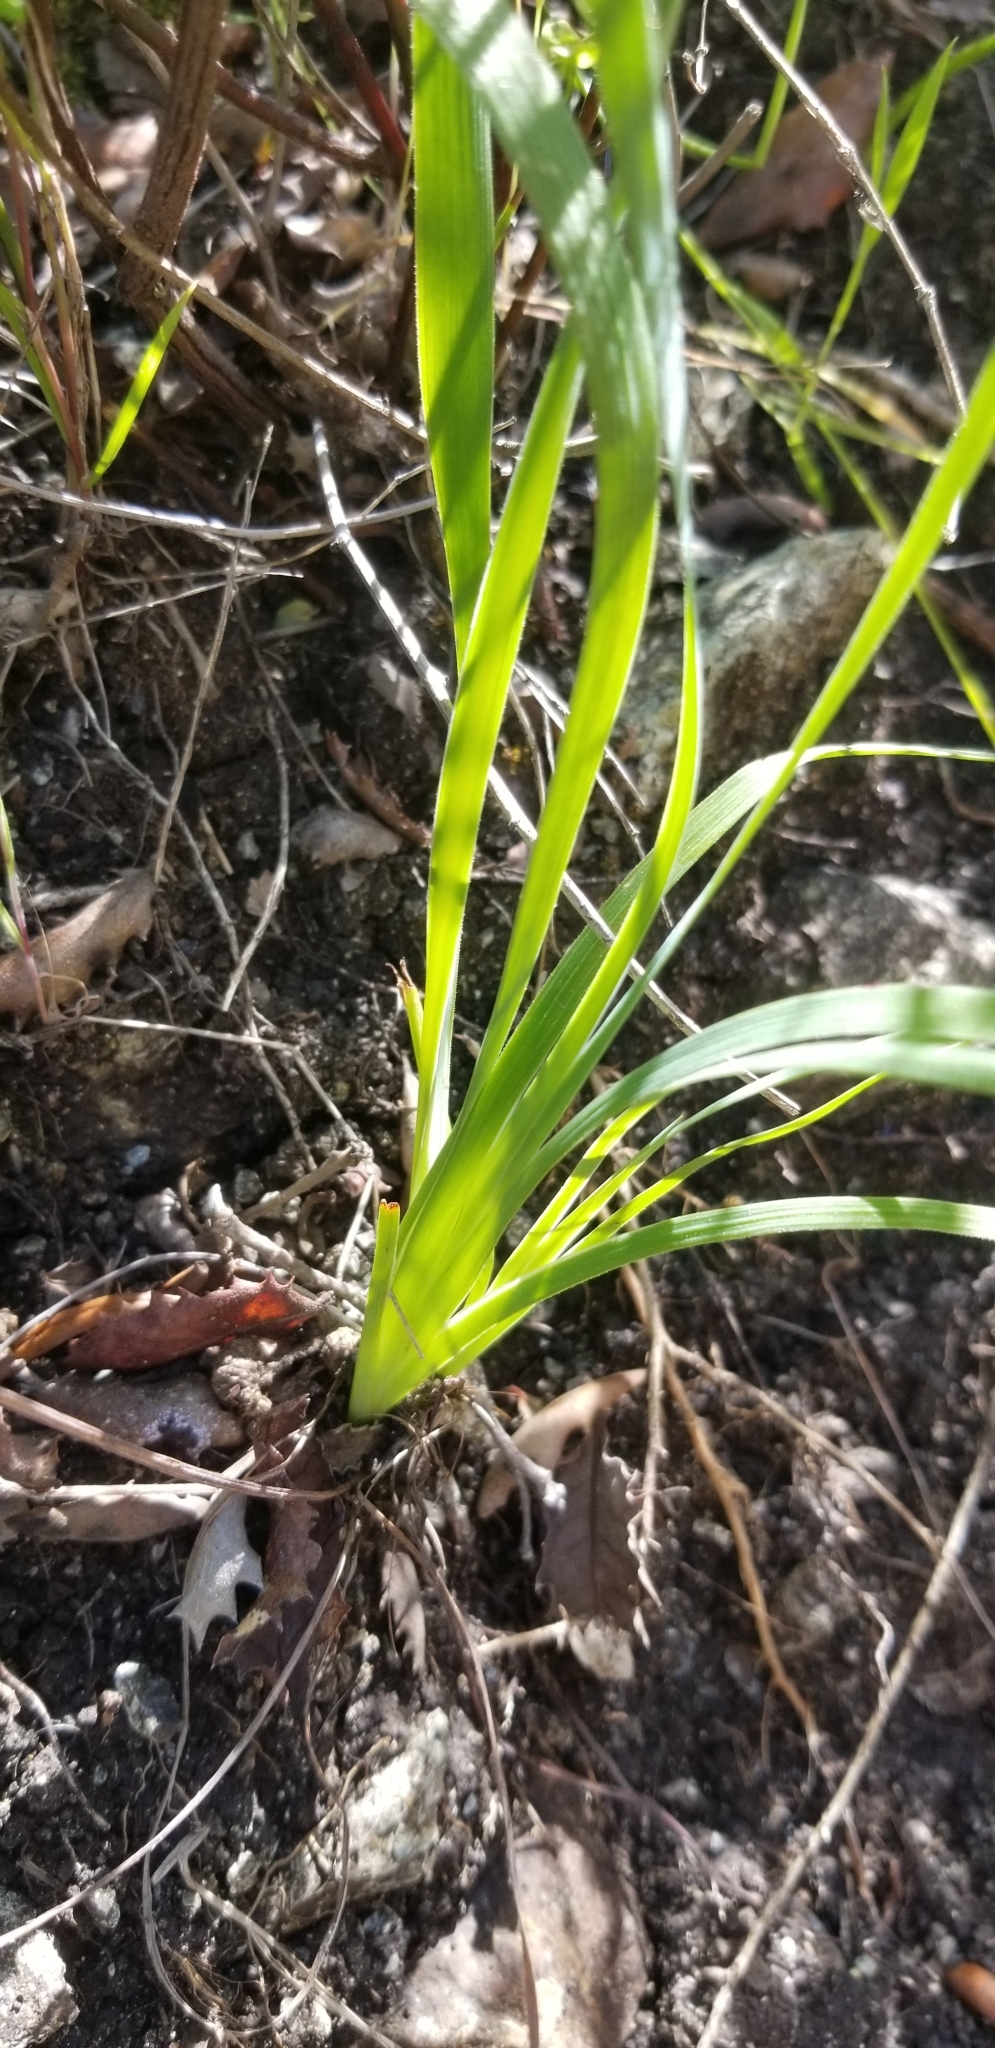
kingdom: Plantae
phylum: Tracheophyta
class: Liliopsida
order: Asparagales
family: Iridaceae
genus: Sisyrinchium
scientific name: Sisyrinchium bellum
